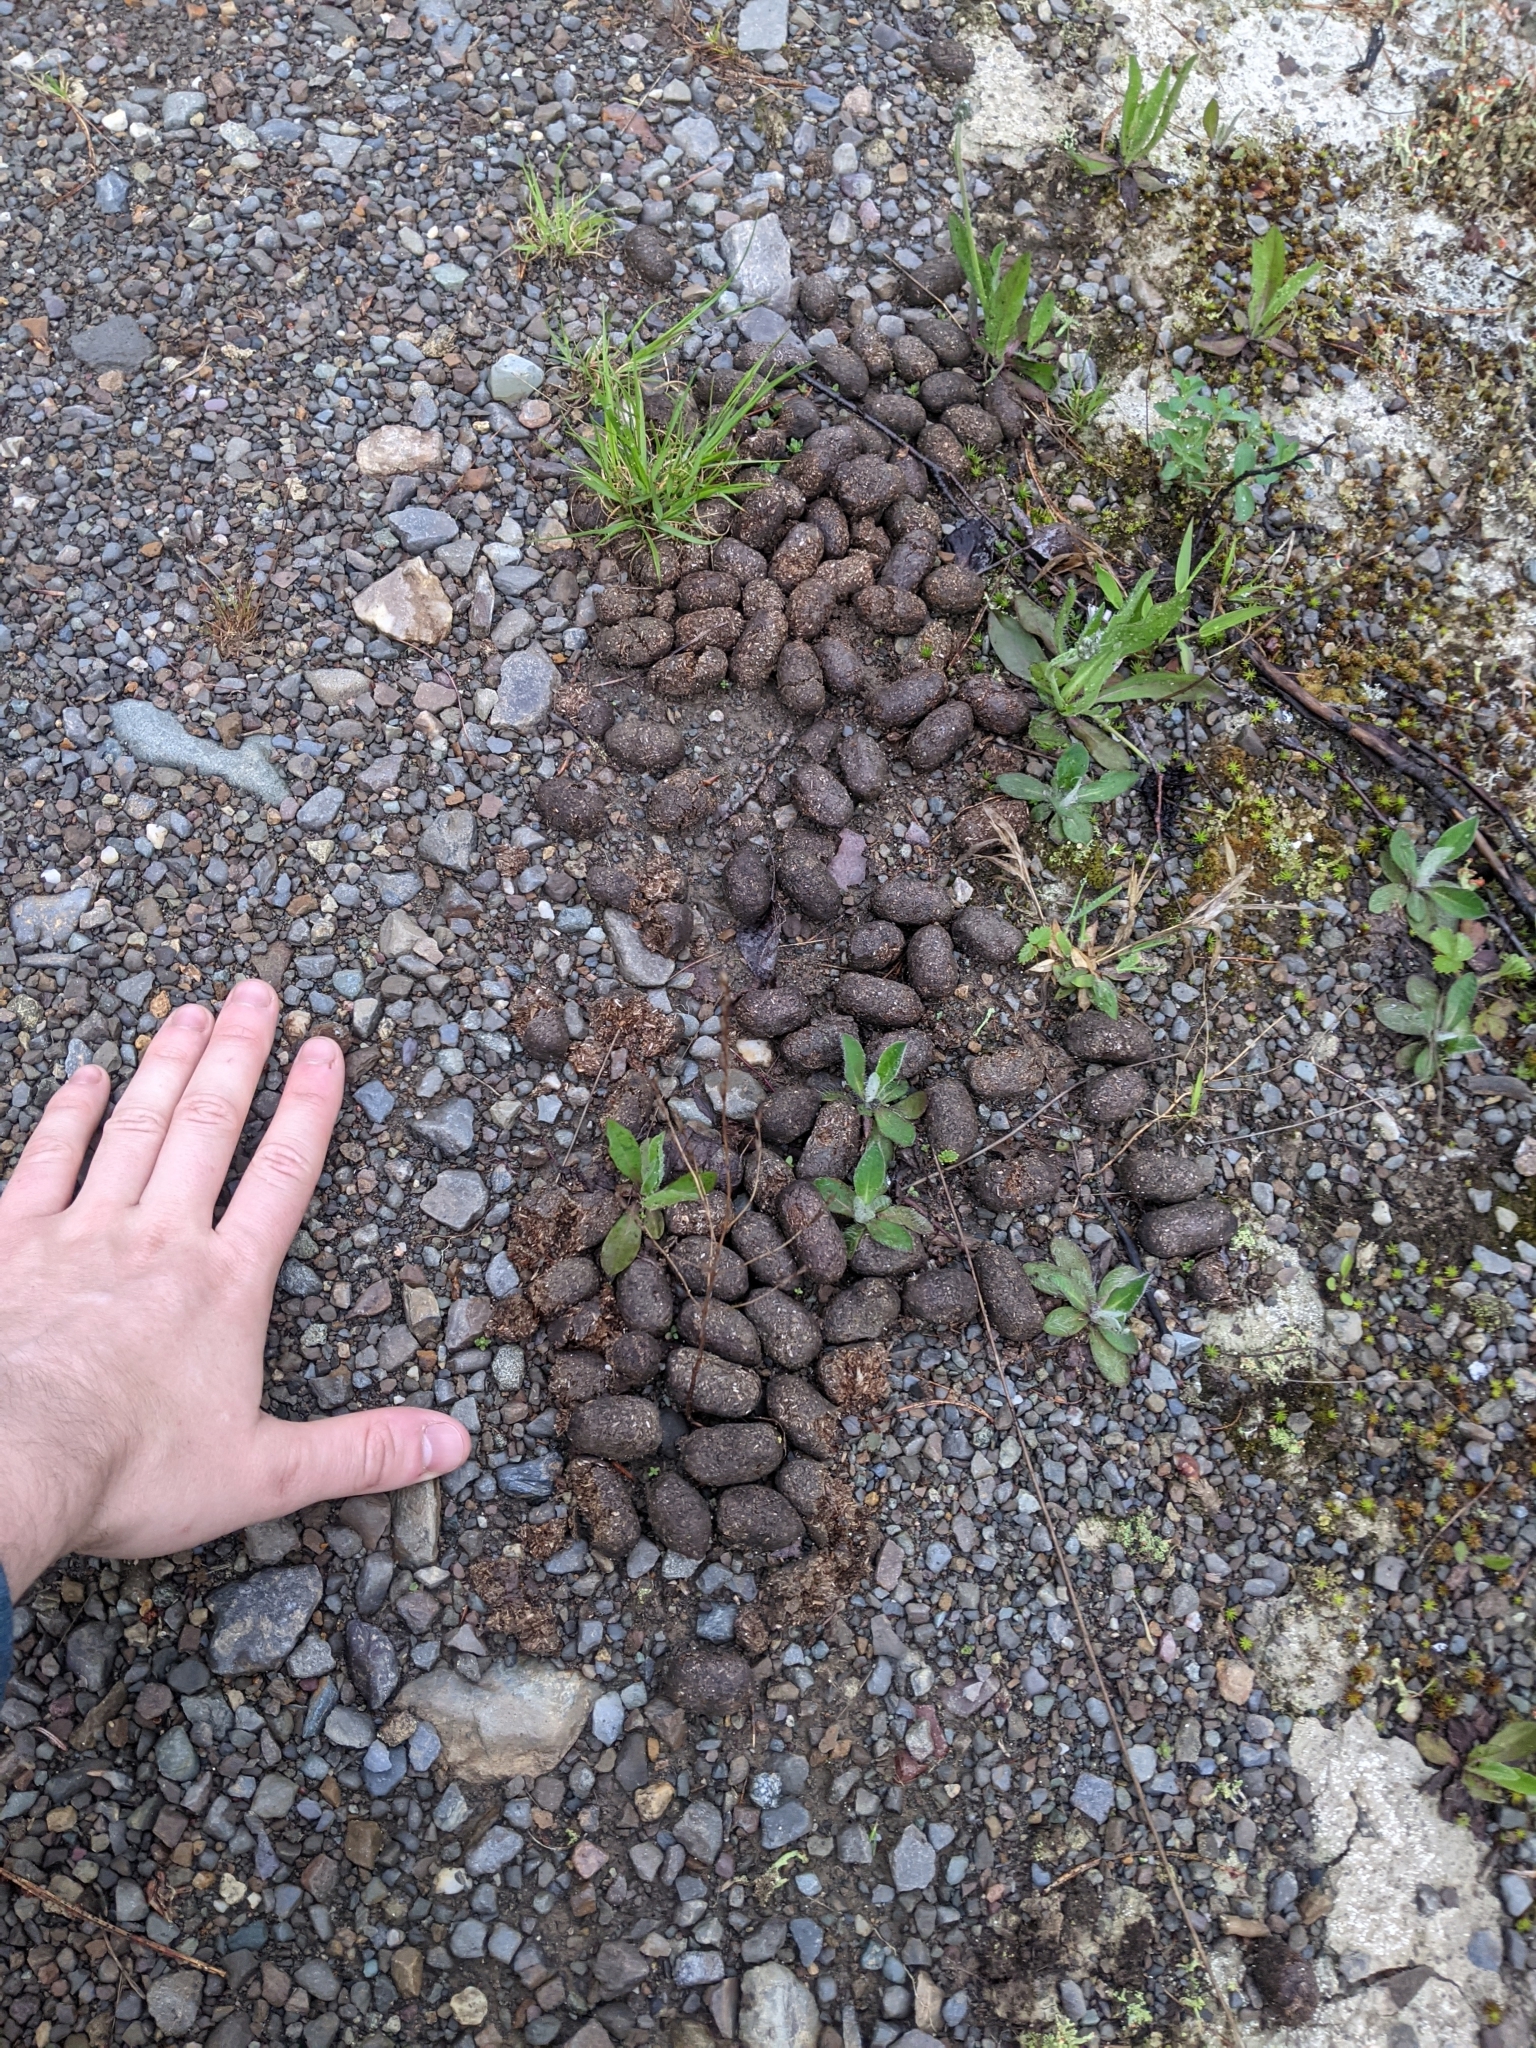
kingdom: Animalia
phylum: Chordata
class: Mammalia
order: Artiodactyla
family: Cervidae
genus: Alces
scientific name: Alces alces
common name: Moose
